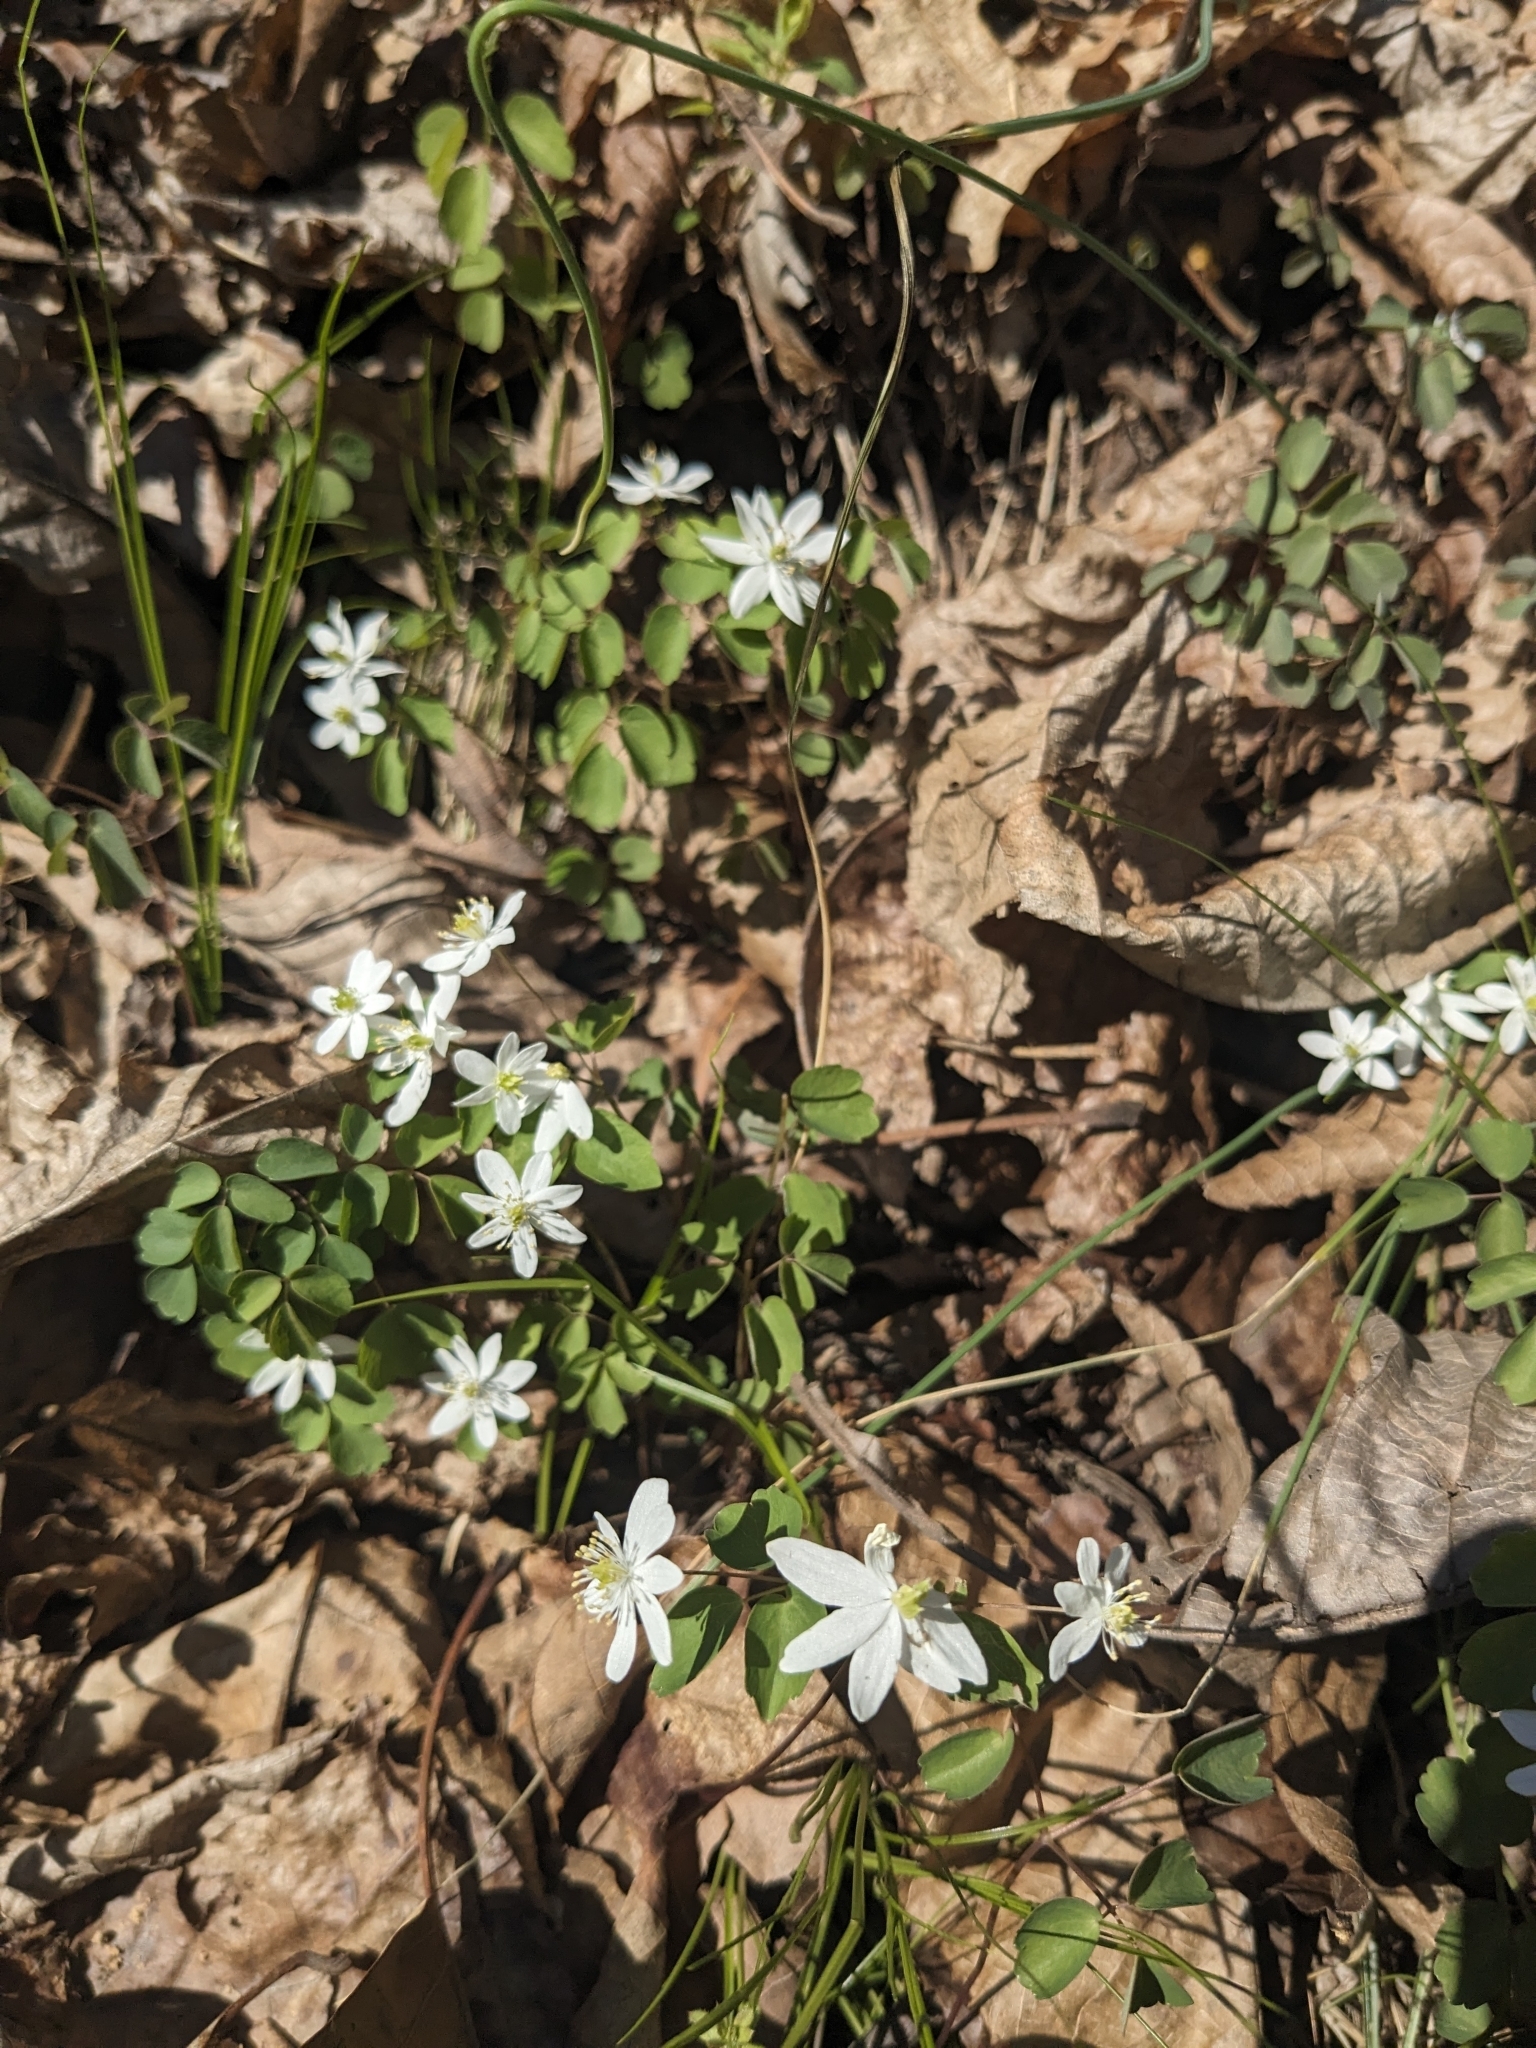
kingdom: Plantae
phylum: Tracheophyta
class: Magnoliopsida
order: Ranunculales
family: Ranunculaceae
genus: Thalictrum
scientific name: Thalictrum thalictroides
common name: Rue-anemone
